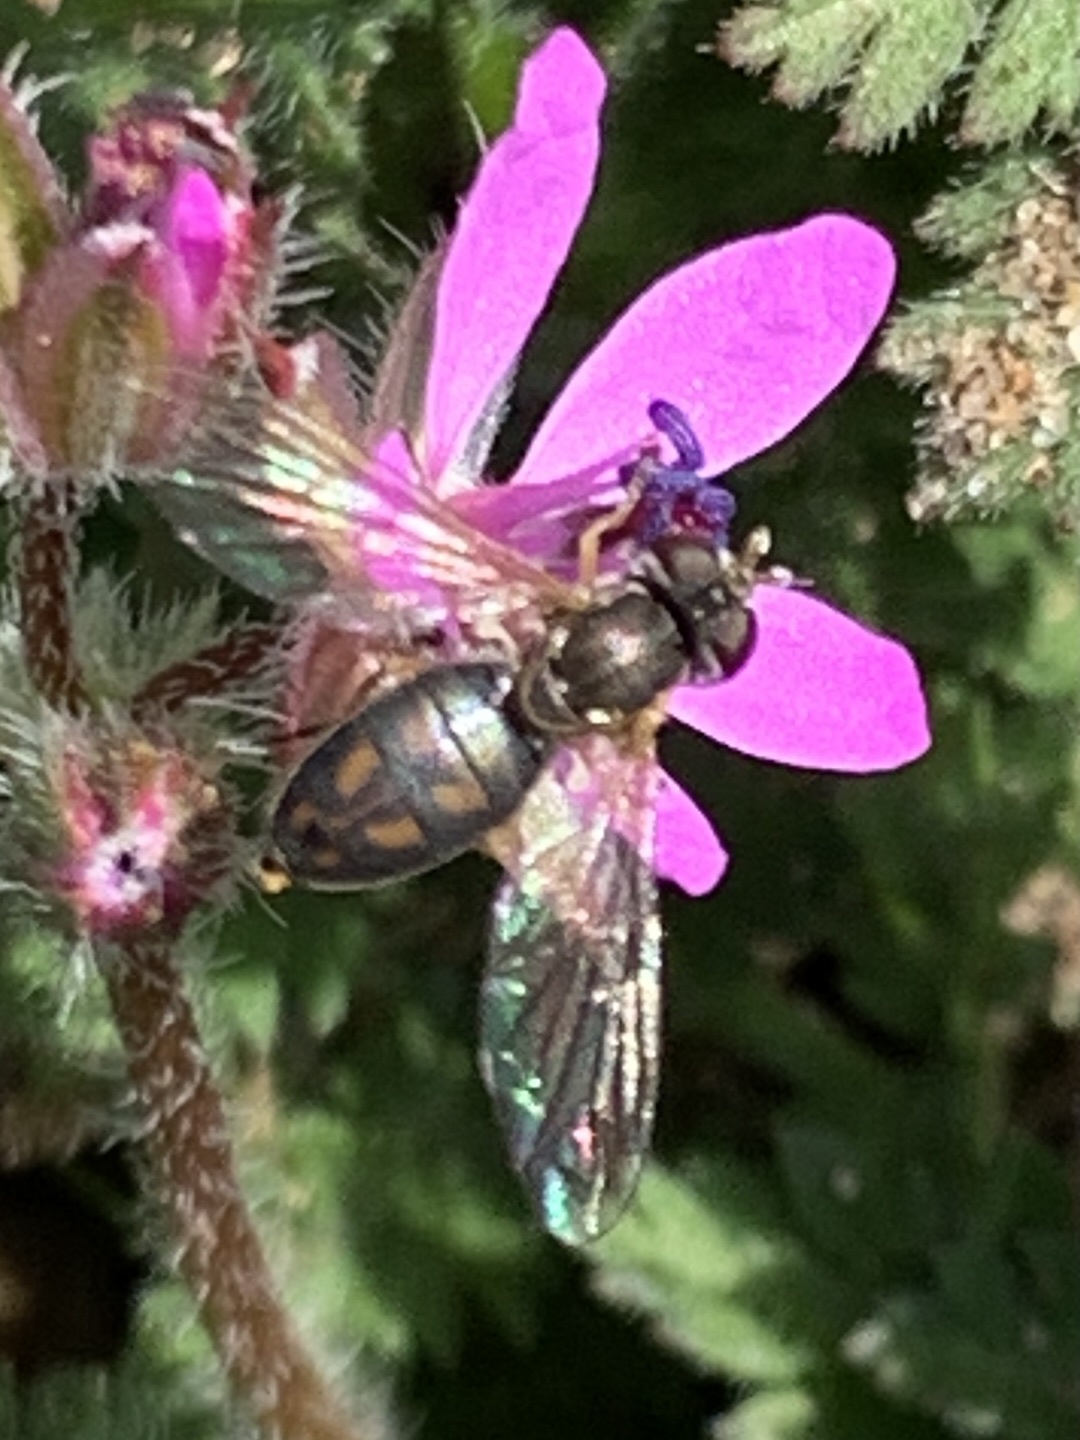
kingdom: Animalia
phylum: Arthropoda
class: Insecta
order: Diptera
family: Syrphidae
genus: Toxomerus
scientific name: Toxomerus marginatus
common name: Syrphid fly
